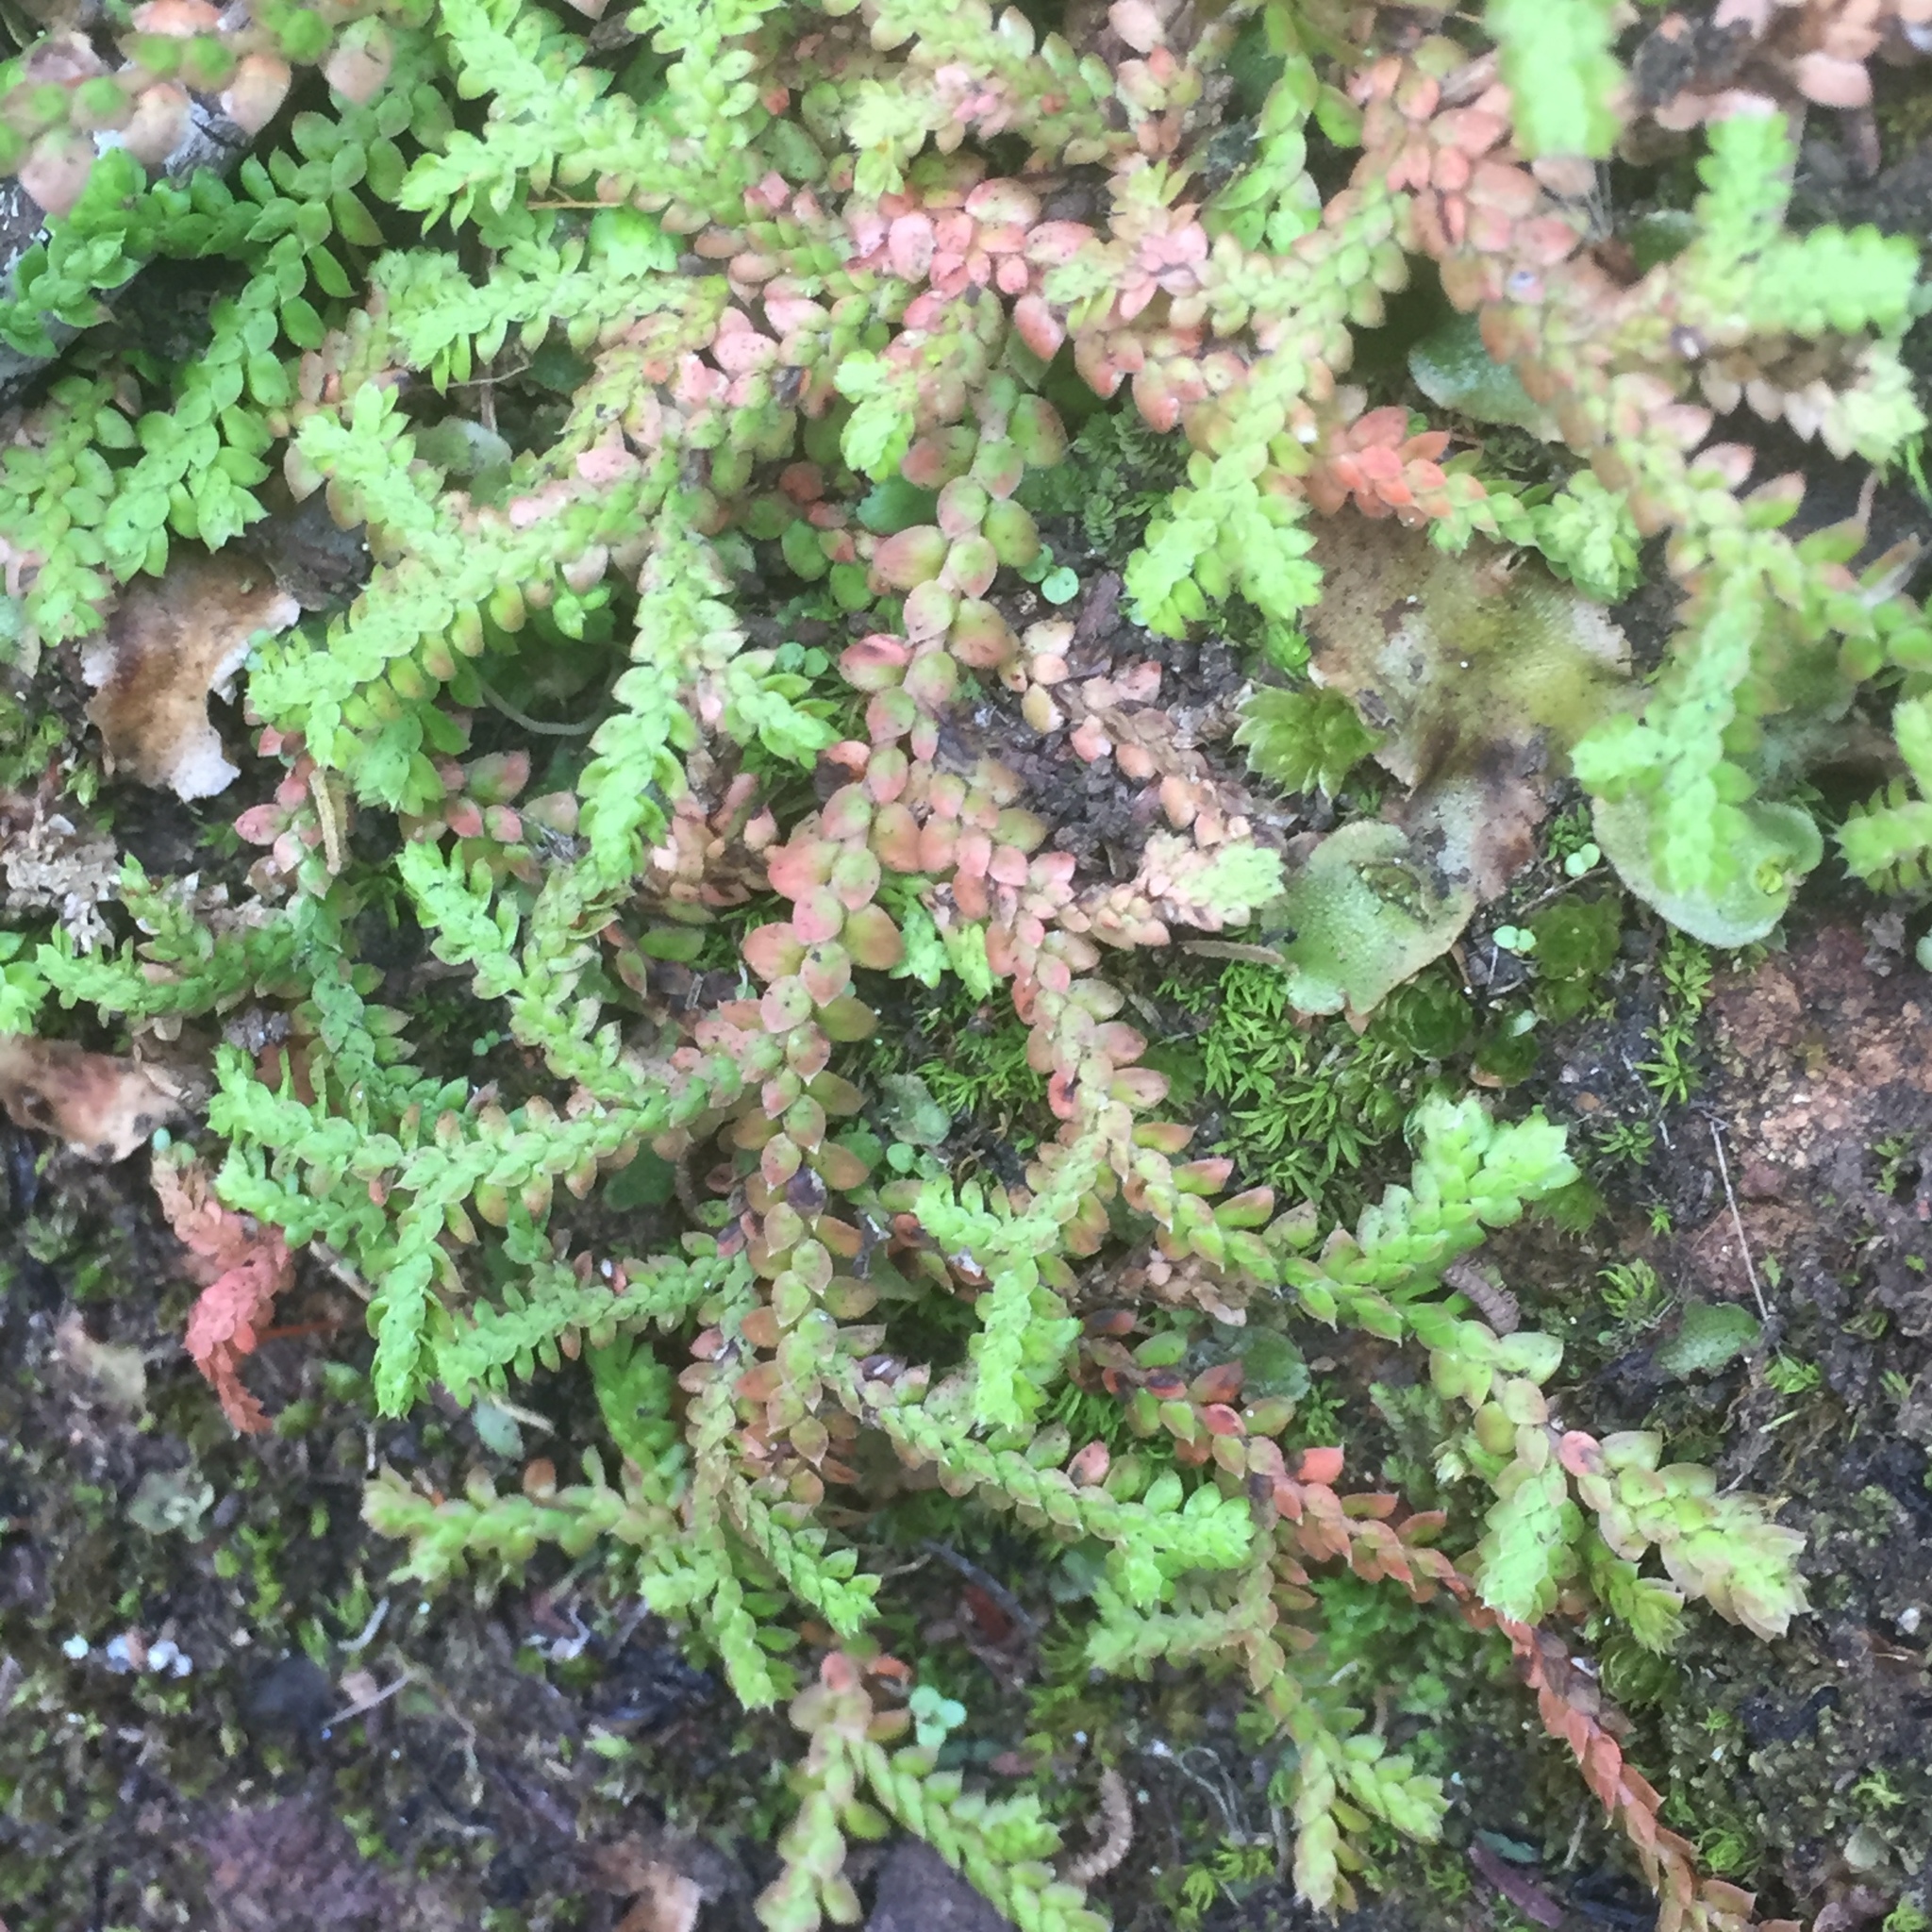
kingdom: Plantae
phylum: Tracheophyta
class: Lycopodiopsida
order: Selaginellales
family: Selaginellaceae
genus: Selaginella
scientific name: Selaginella denticulata
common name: Toothed-leaved clubmoss
